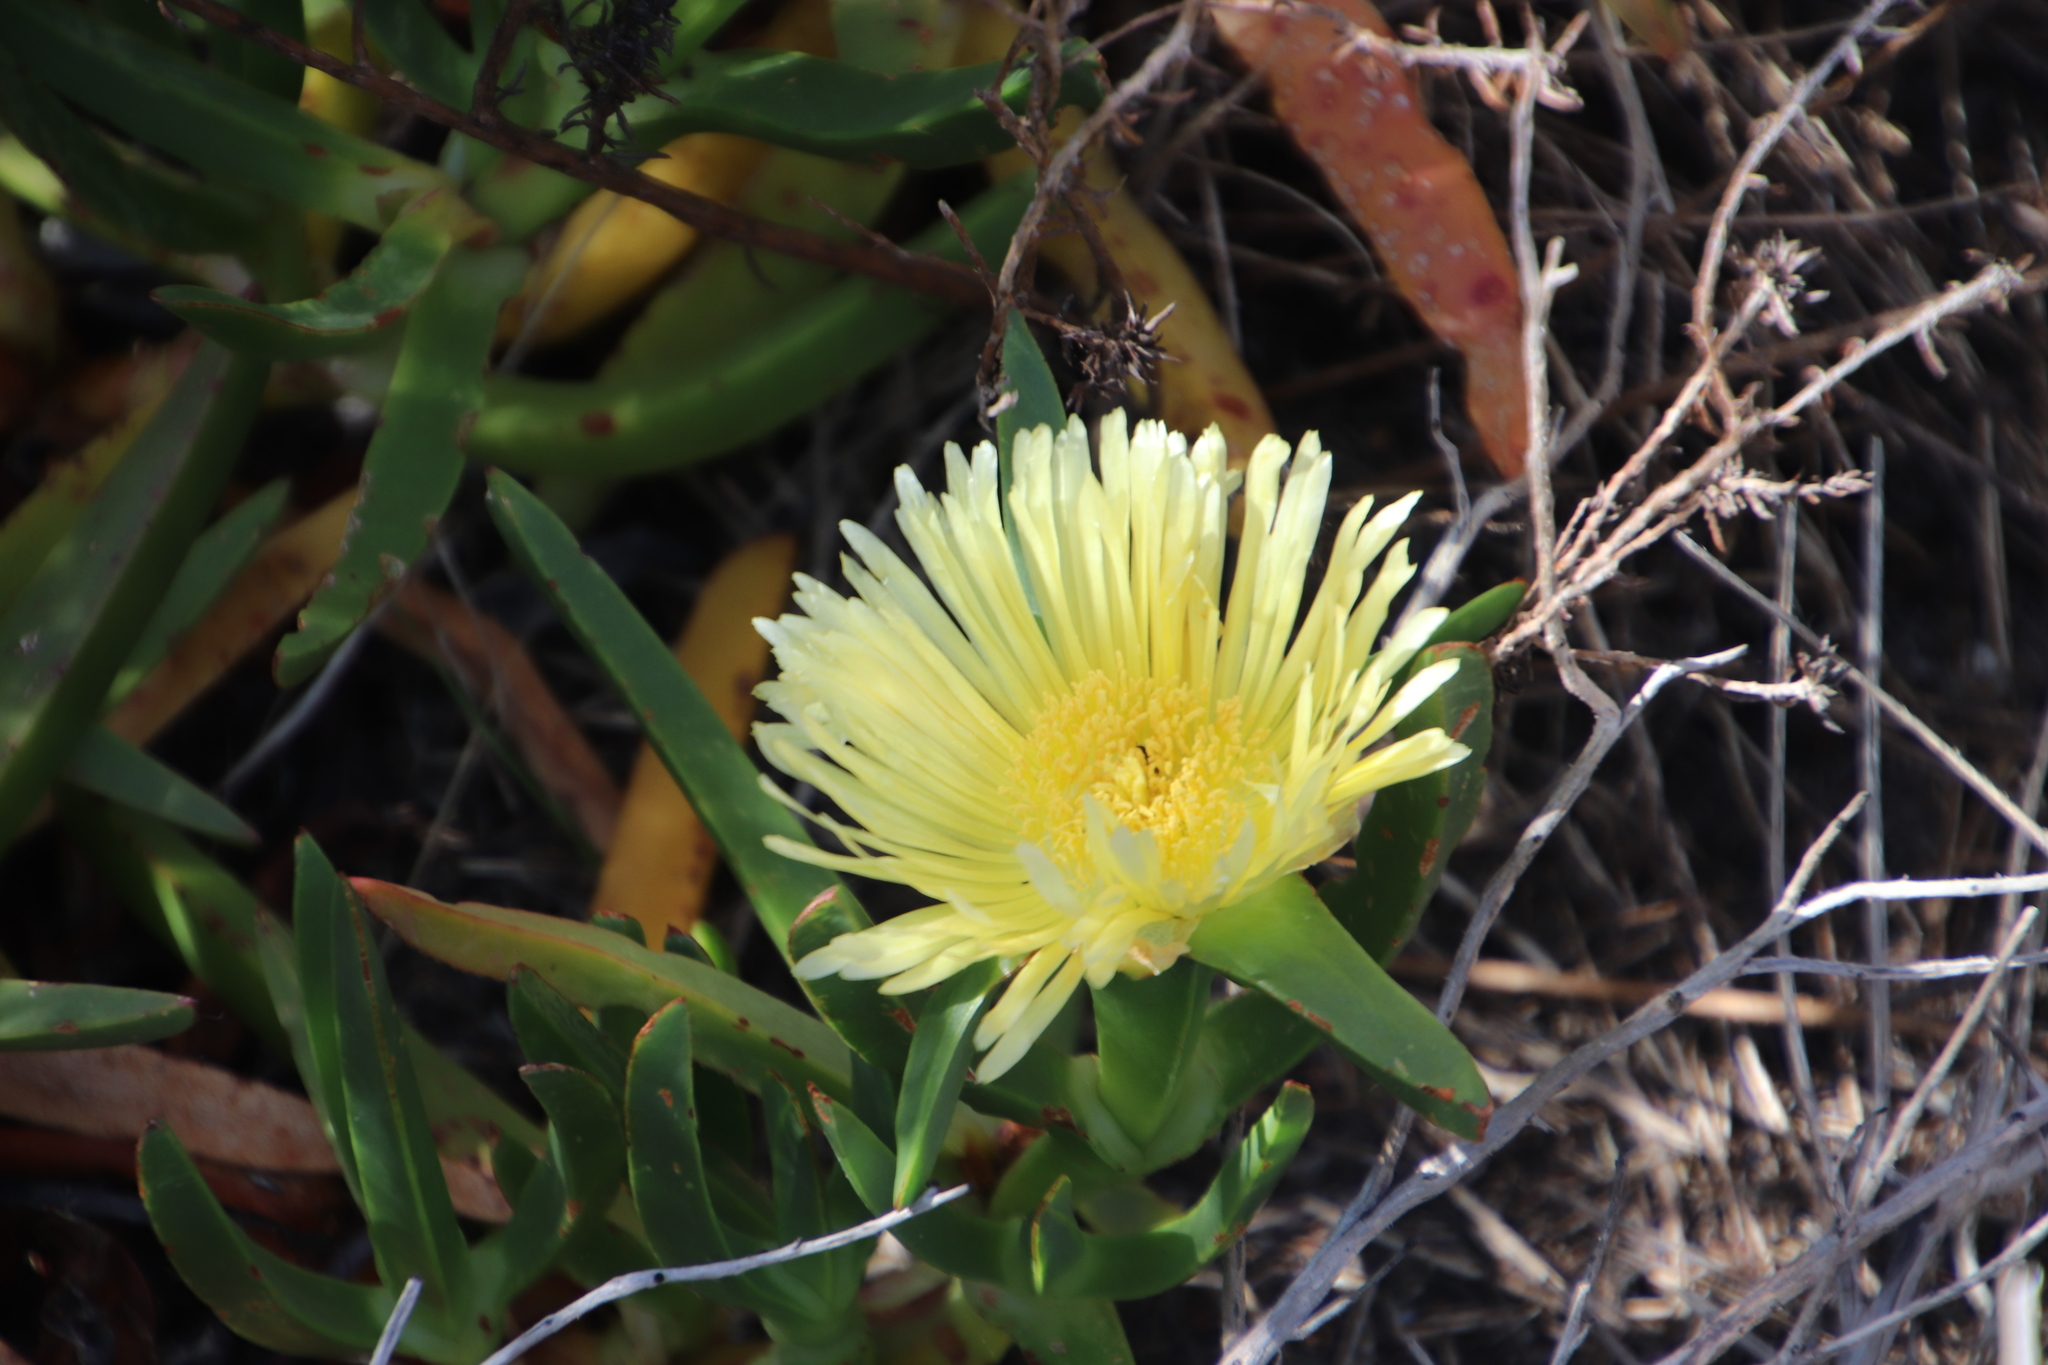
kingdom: Plantae
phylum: Tracheophyta
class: Magnoliopsida
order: Caryophyllales
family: Aizoaceae
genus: Carpobrotus
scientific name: Carpobrotus edulis
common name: Hottentot-fig
